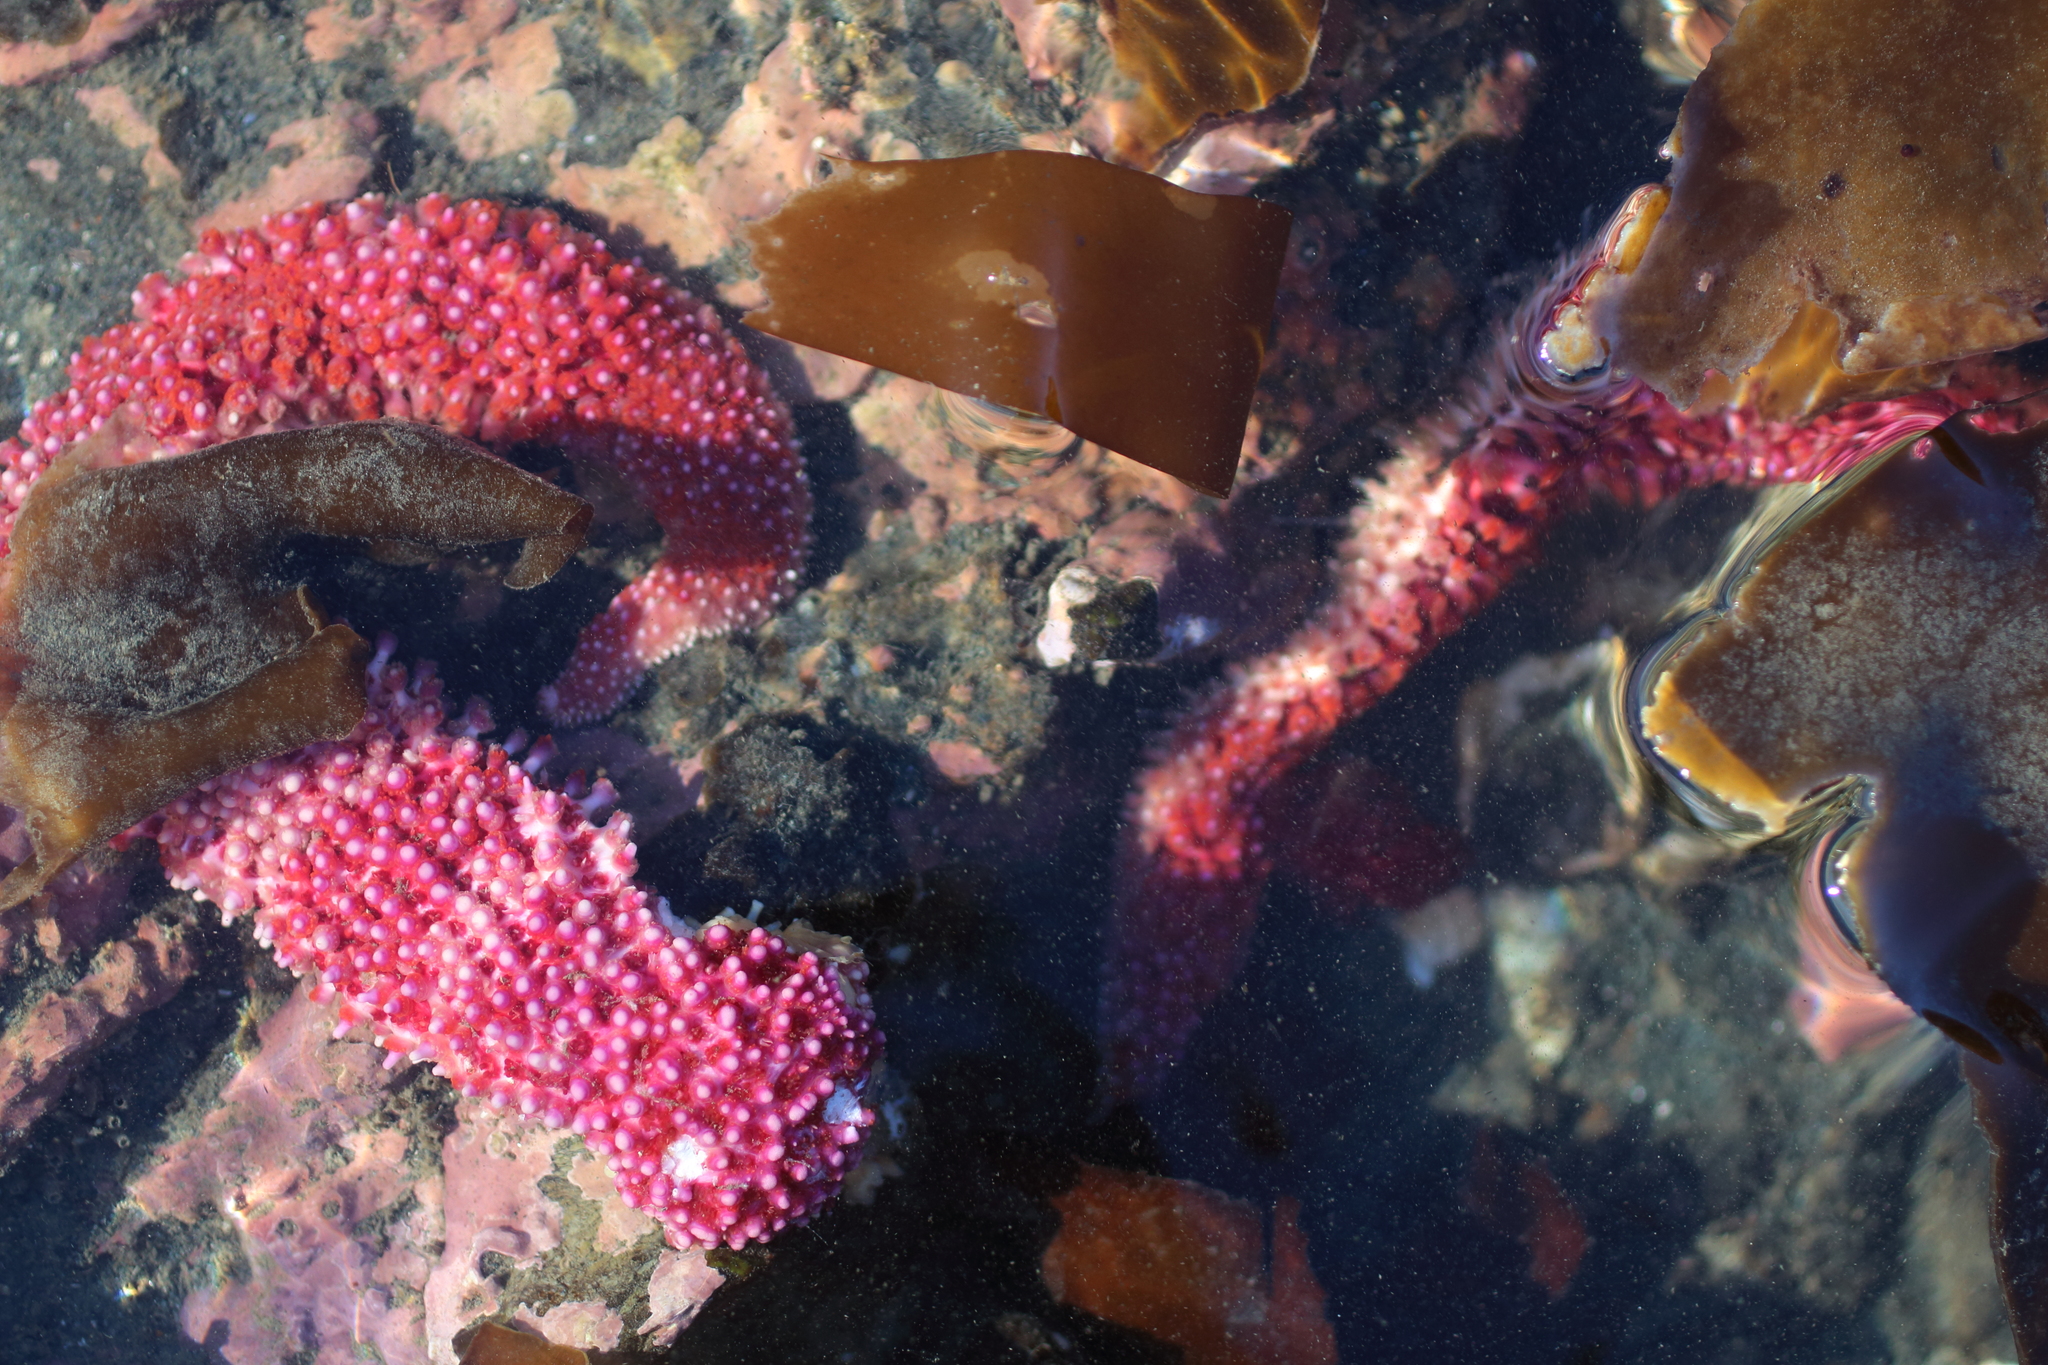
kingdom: Animalia
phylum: Echinodermata
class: Asteroidea
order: Forcipulatida
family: Asteriidae
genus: Orthasterias
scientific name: Orthasterias koehleri
